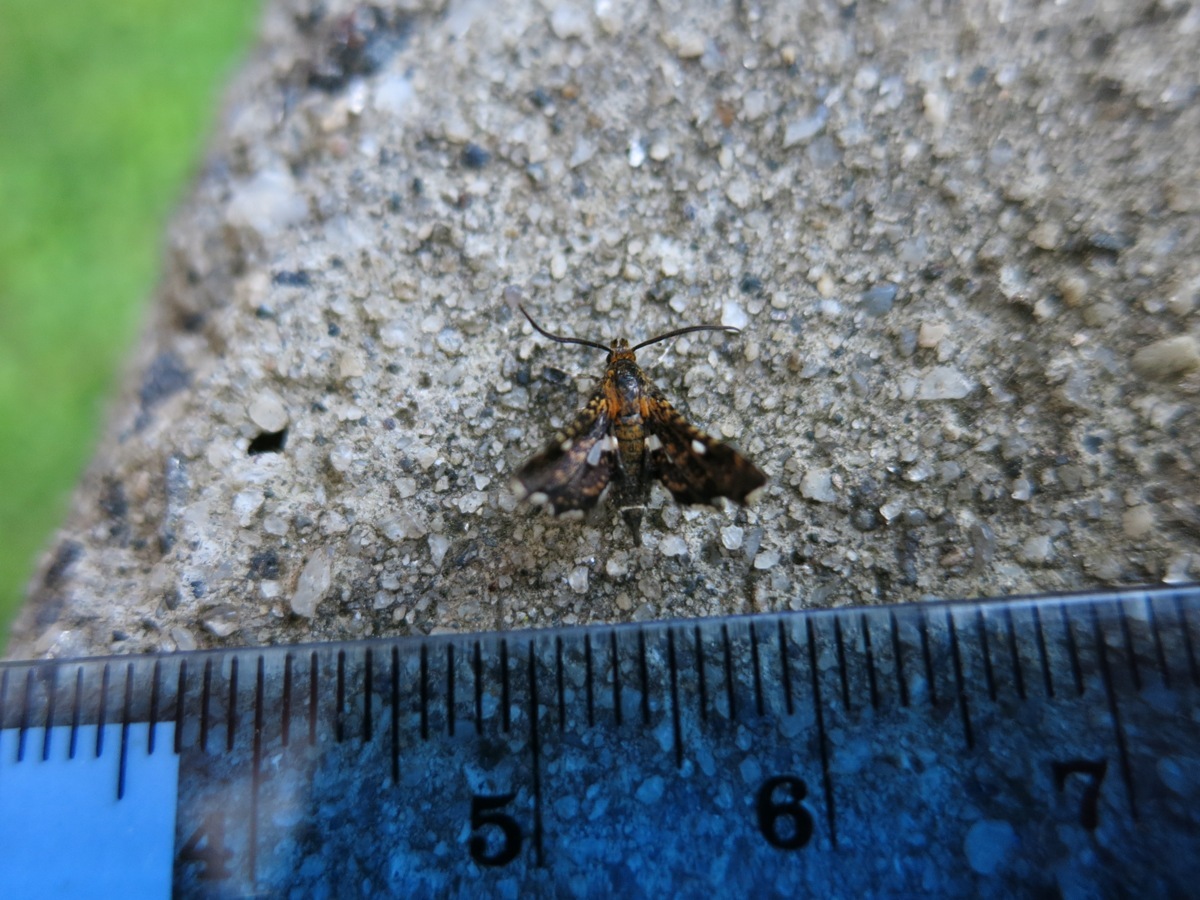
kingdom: Animalia
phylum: Arthropoda
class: Insecta
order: Lepidoptera
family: Thyrididae
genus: Thyris
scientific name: Thyris maculata
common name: Spotted thyris moth
